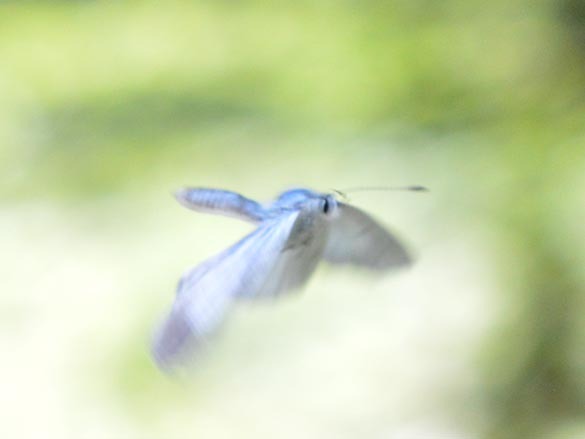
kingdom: Animalia
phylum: Arthropoda
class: Insecta
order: Lepidoptera
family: Lycaenidae
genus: Celastrina
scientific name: Celastrina argiolus
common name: Holly blue
